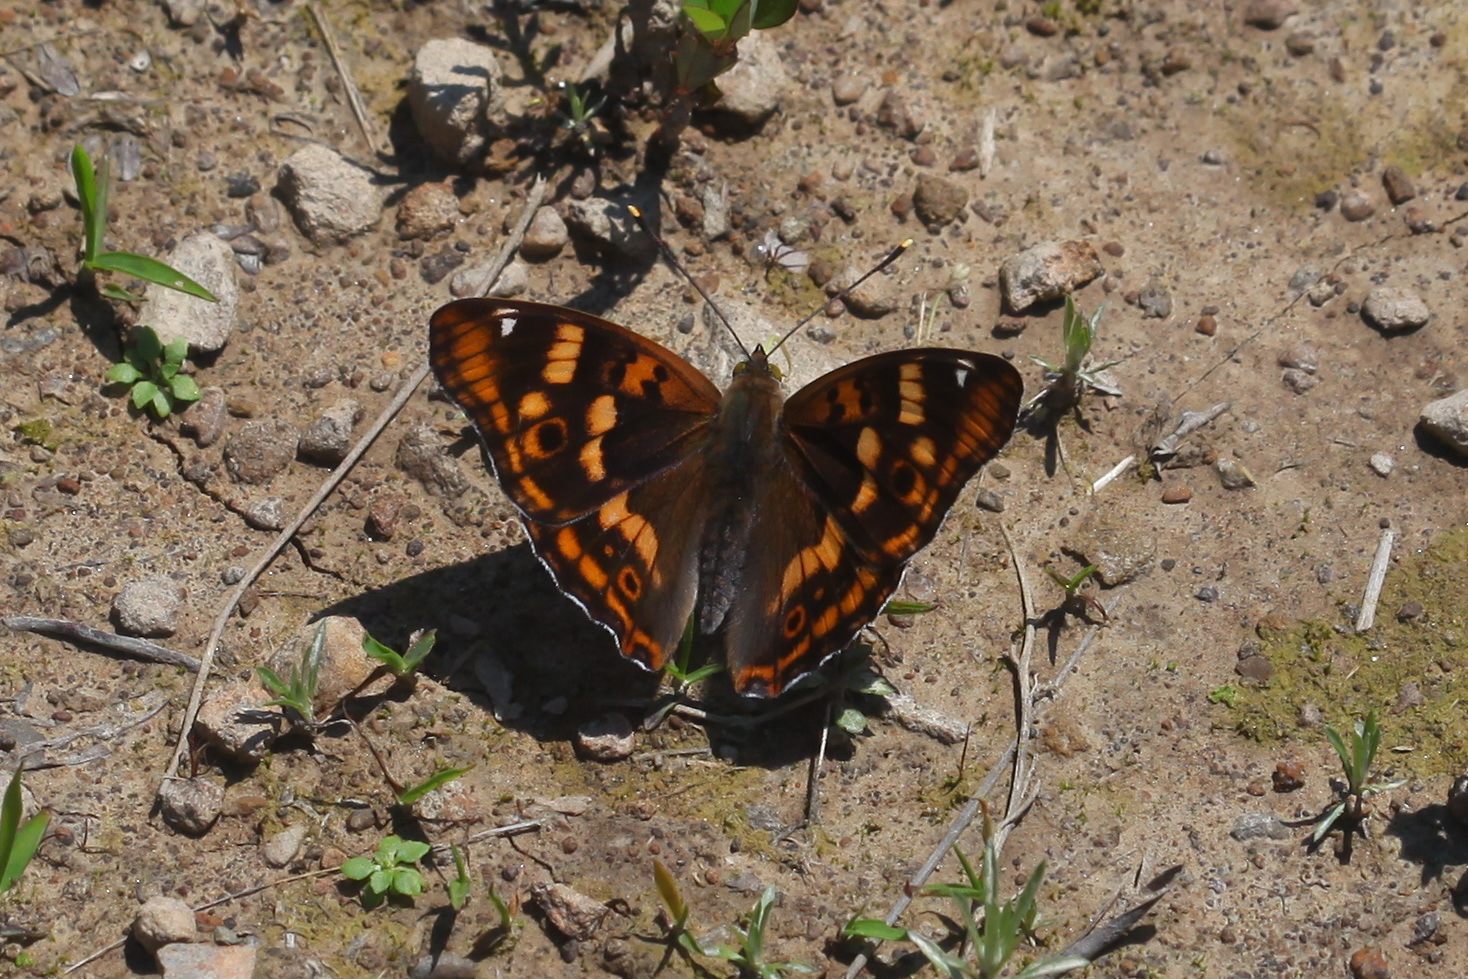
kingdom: Animalia
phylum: Arthropoda
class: Insecta
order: Lepidoptera
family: Nymphalidae
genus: Apatura
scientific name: Apatura ilia
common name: Lesser purple emperor
